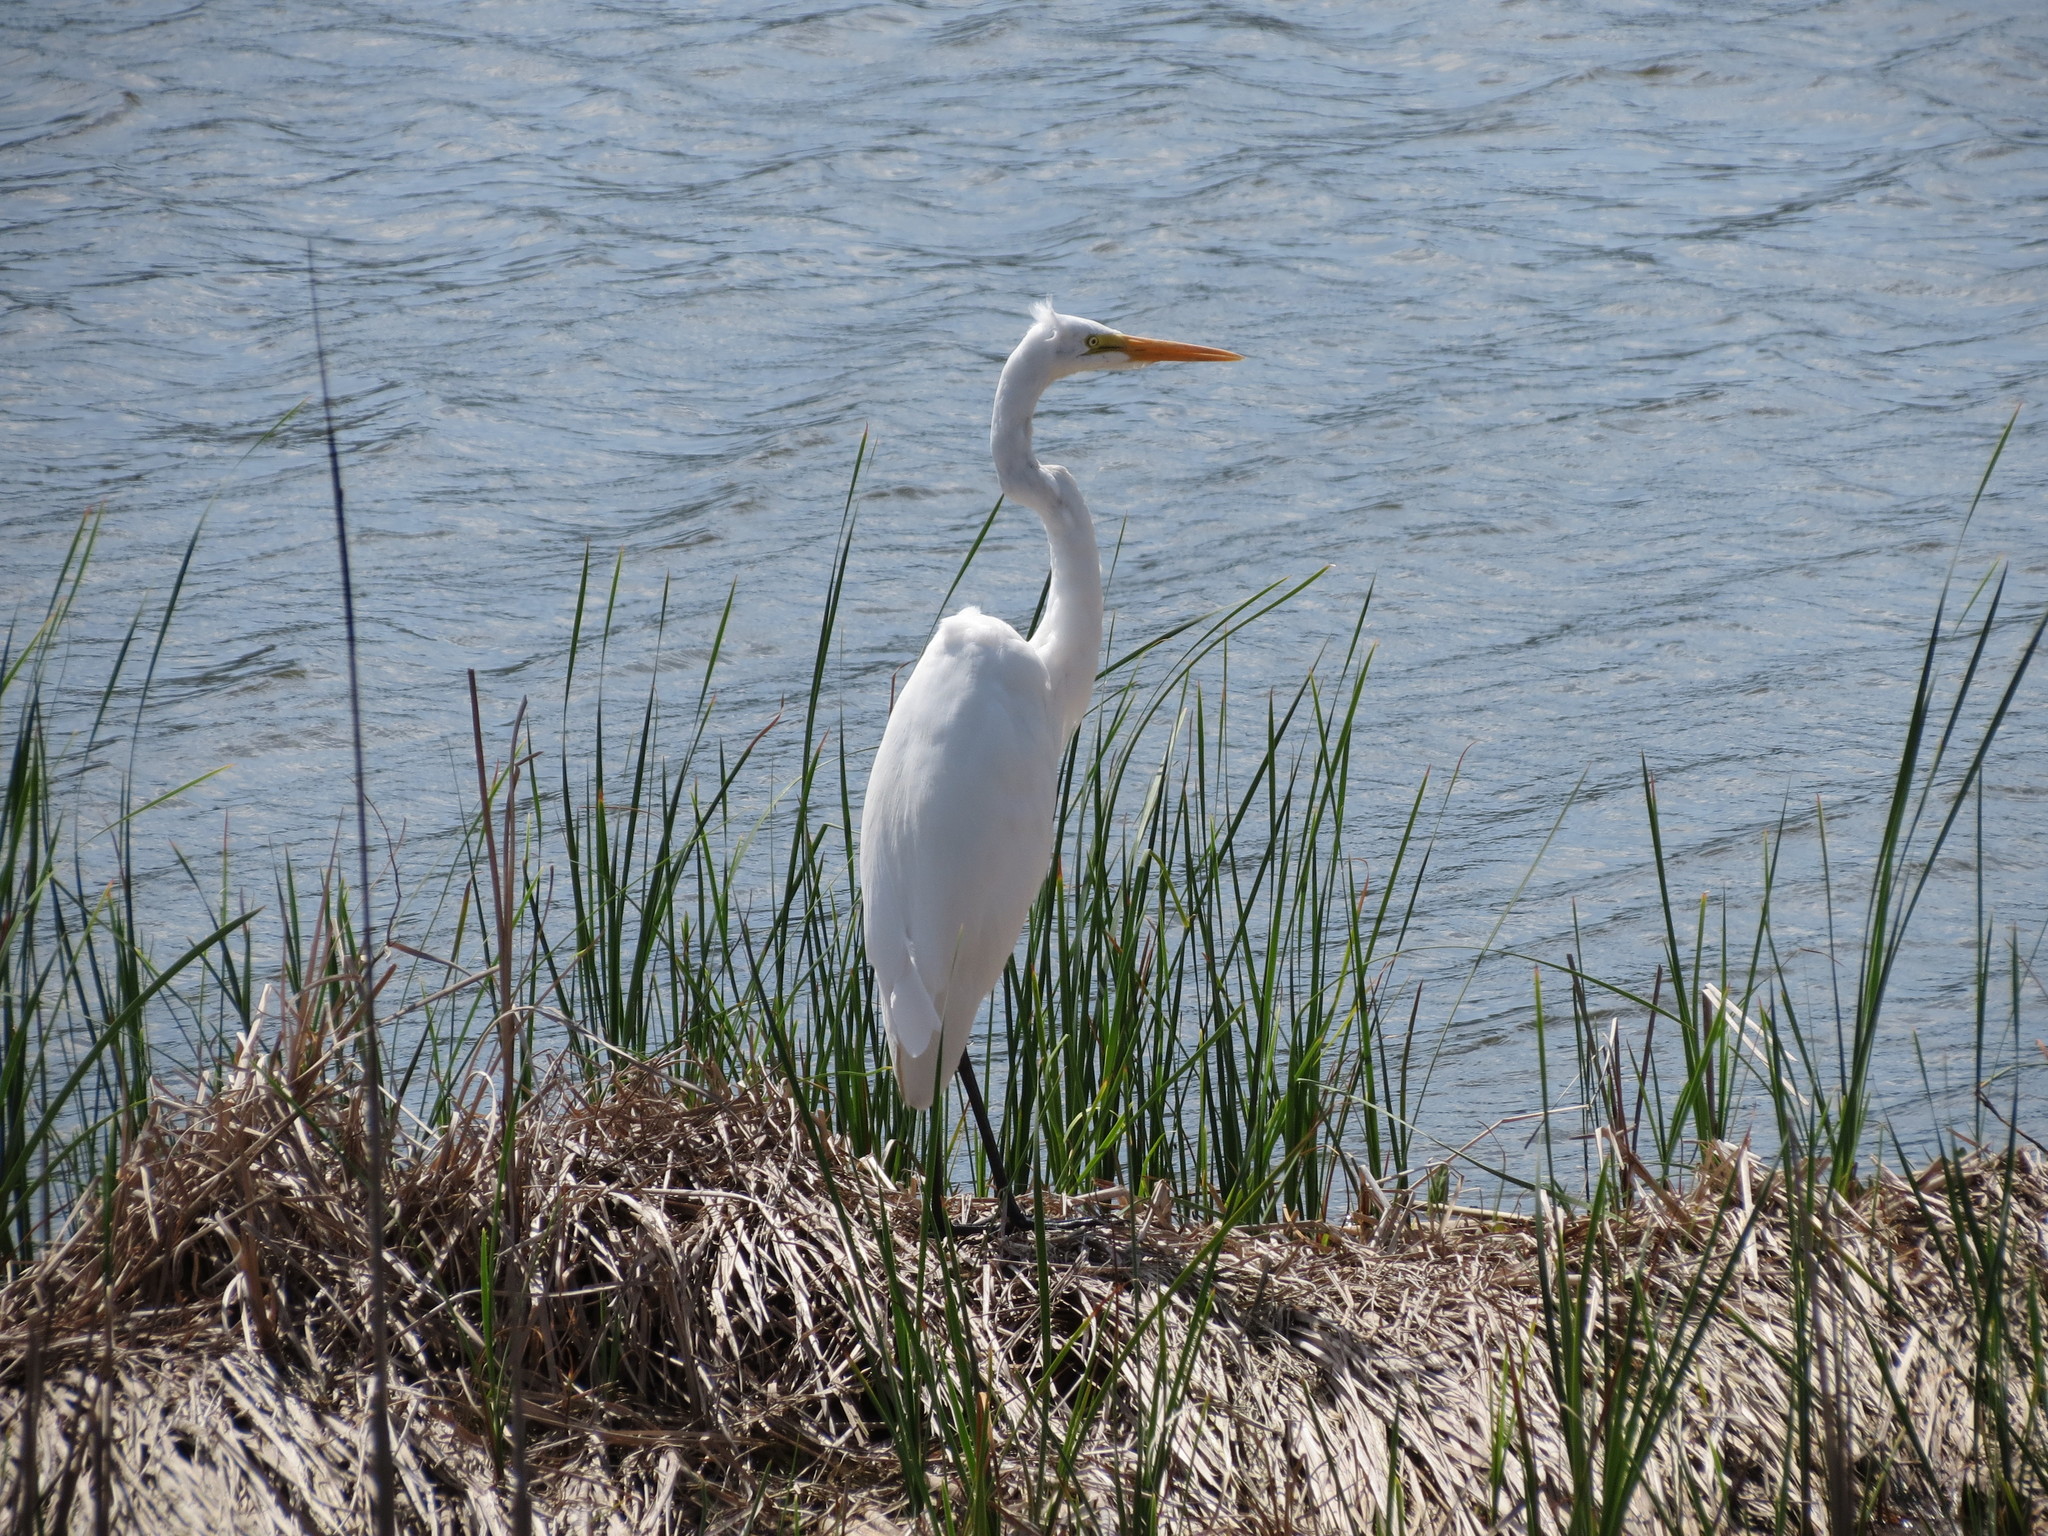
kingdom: Animalia
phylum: Chordata
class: Aves
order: Pelecaniformes
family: Ardeidae
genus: Ardea
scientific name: Ardea alba
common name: Great egret
